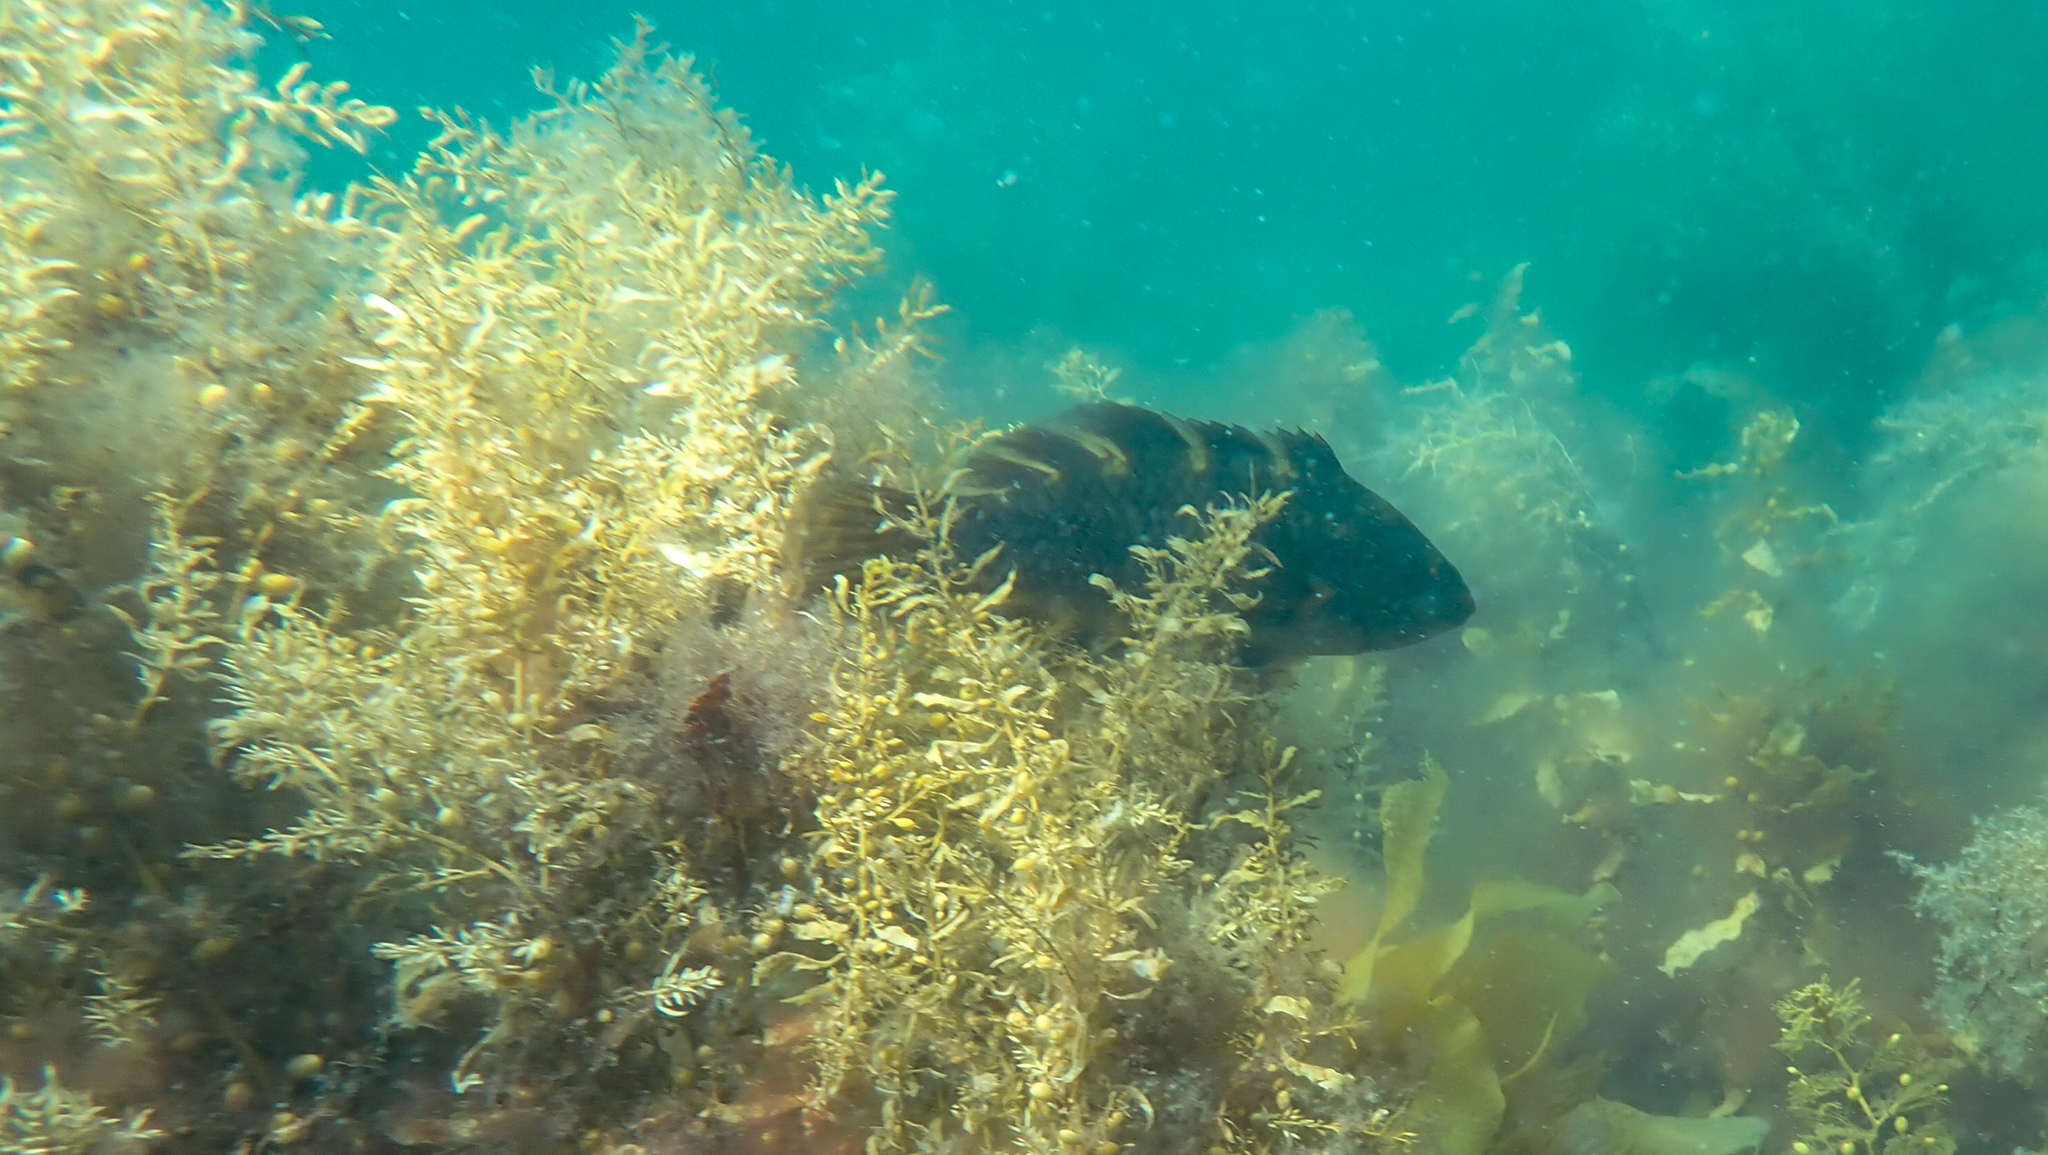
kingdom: Animalia
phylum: Chordata
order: Perciformes
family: Labridae
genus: Notolabrus
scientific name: Notolabrus fucicola
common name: Banded parrotfish
